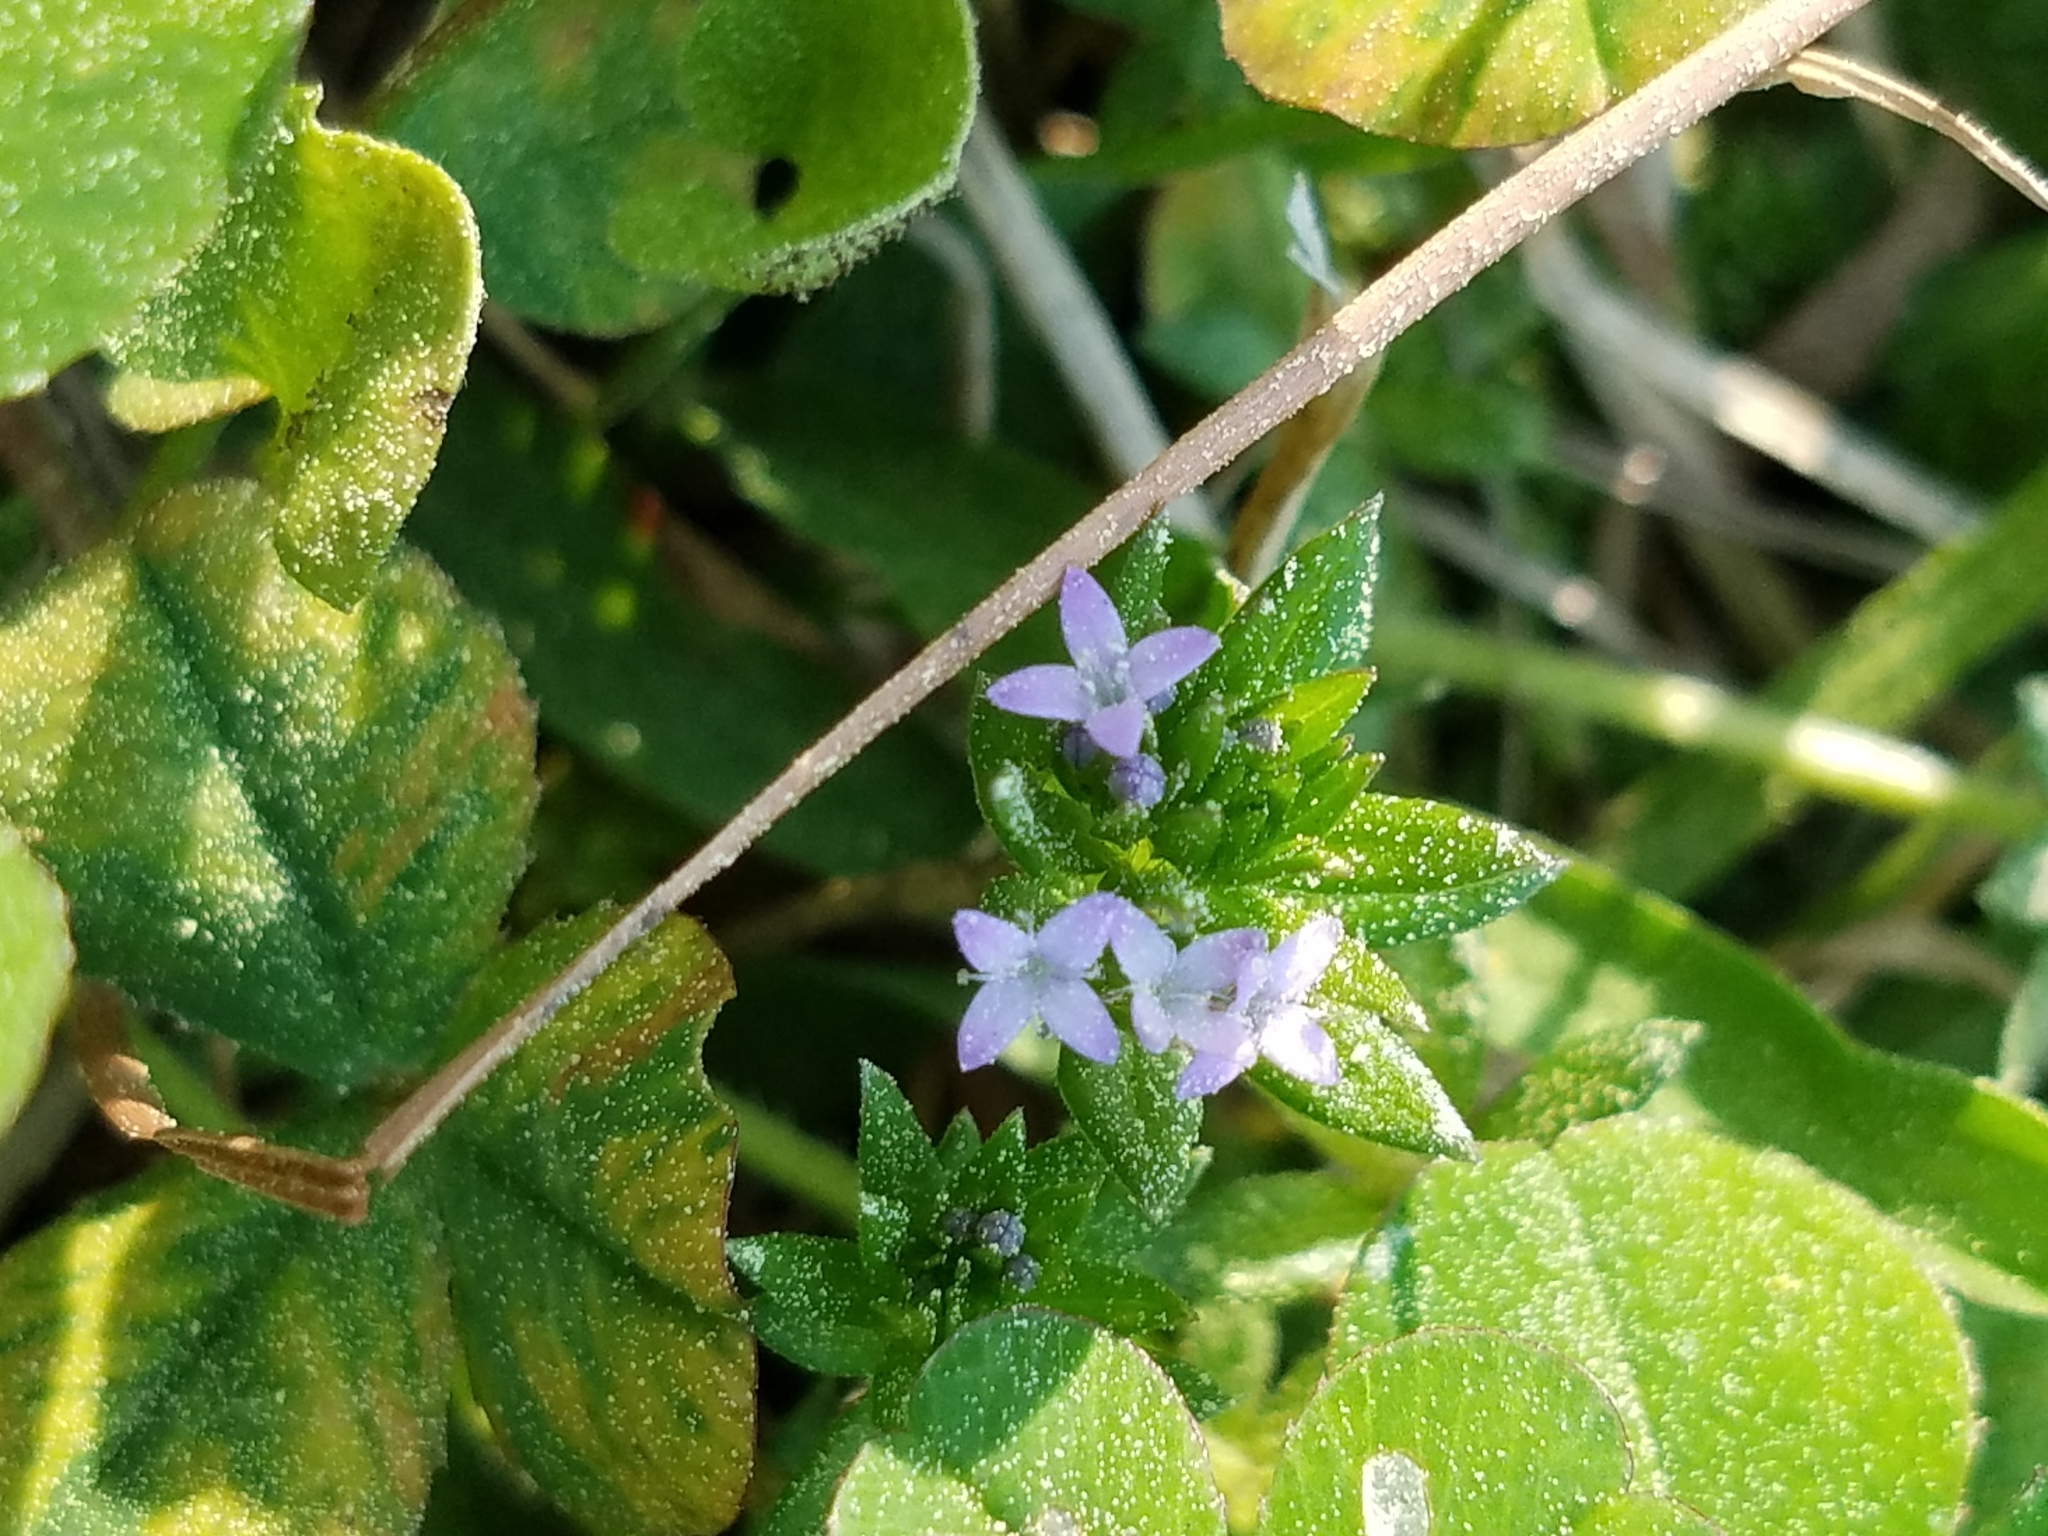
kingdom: Plantae
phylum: Tracheophyta
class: Magnoliopsida
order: Gentianales
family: Rubiaceae
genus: Sherardia
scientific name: Sherardia arvensis
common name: Field madder
